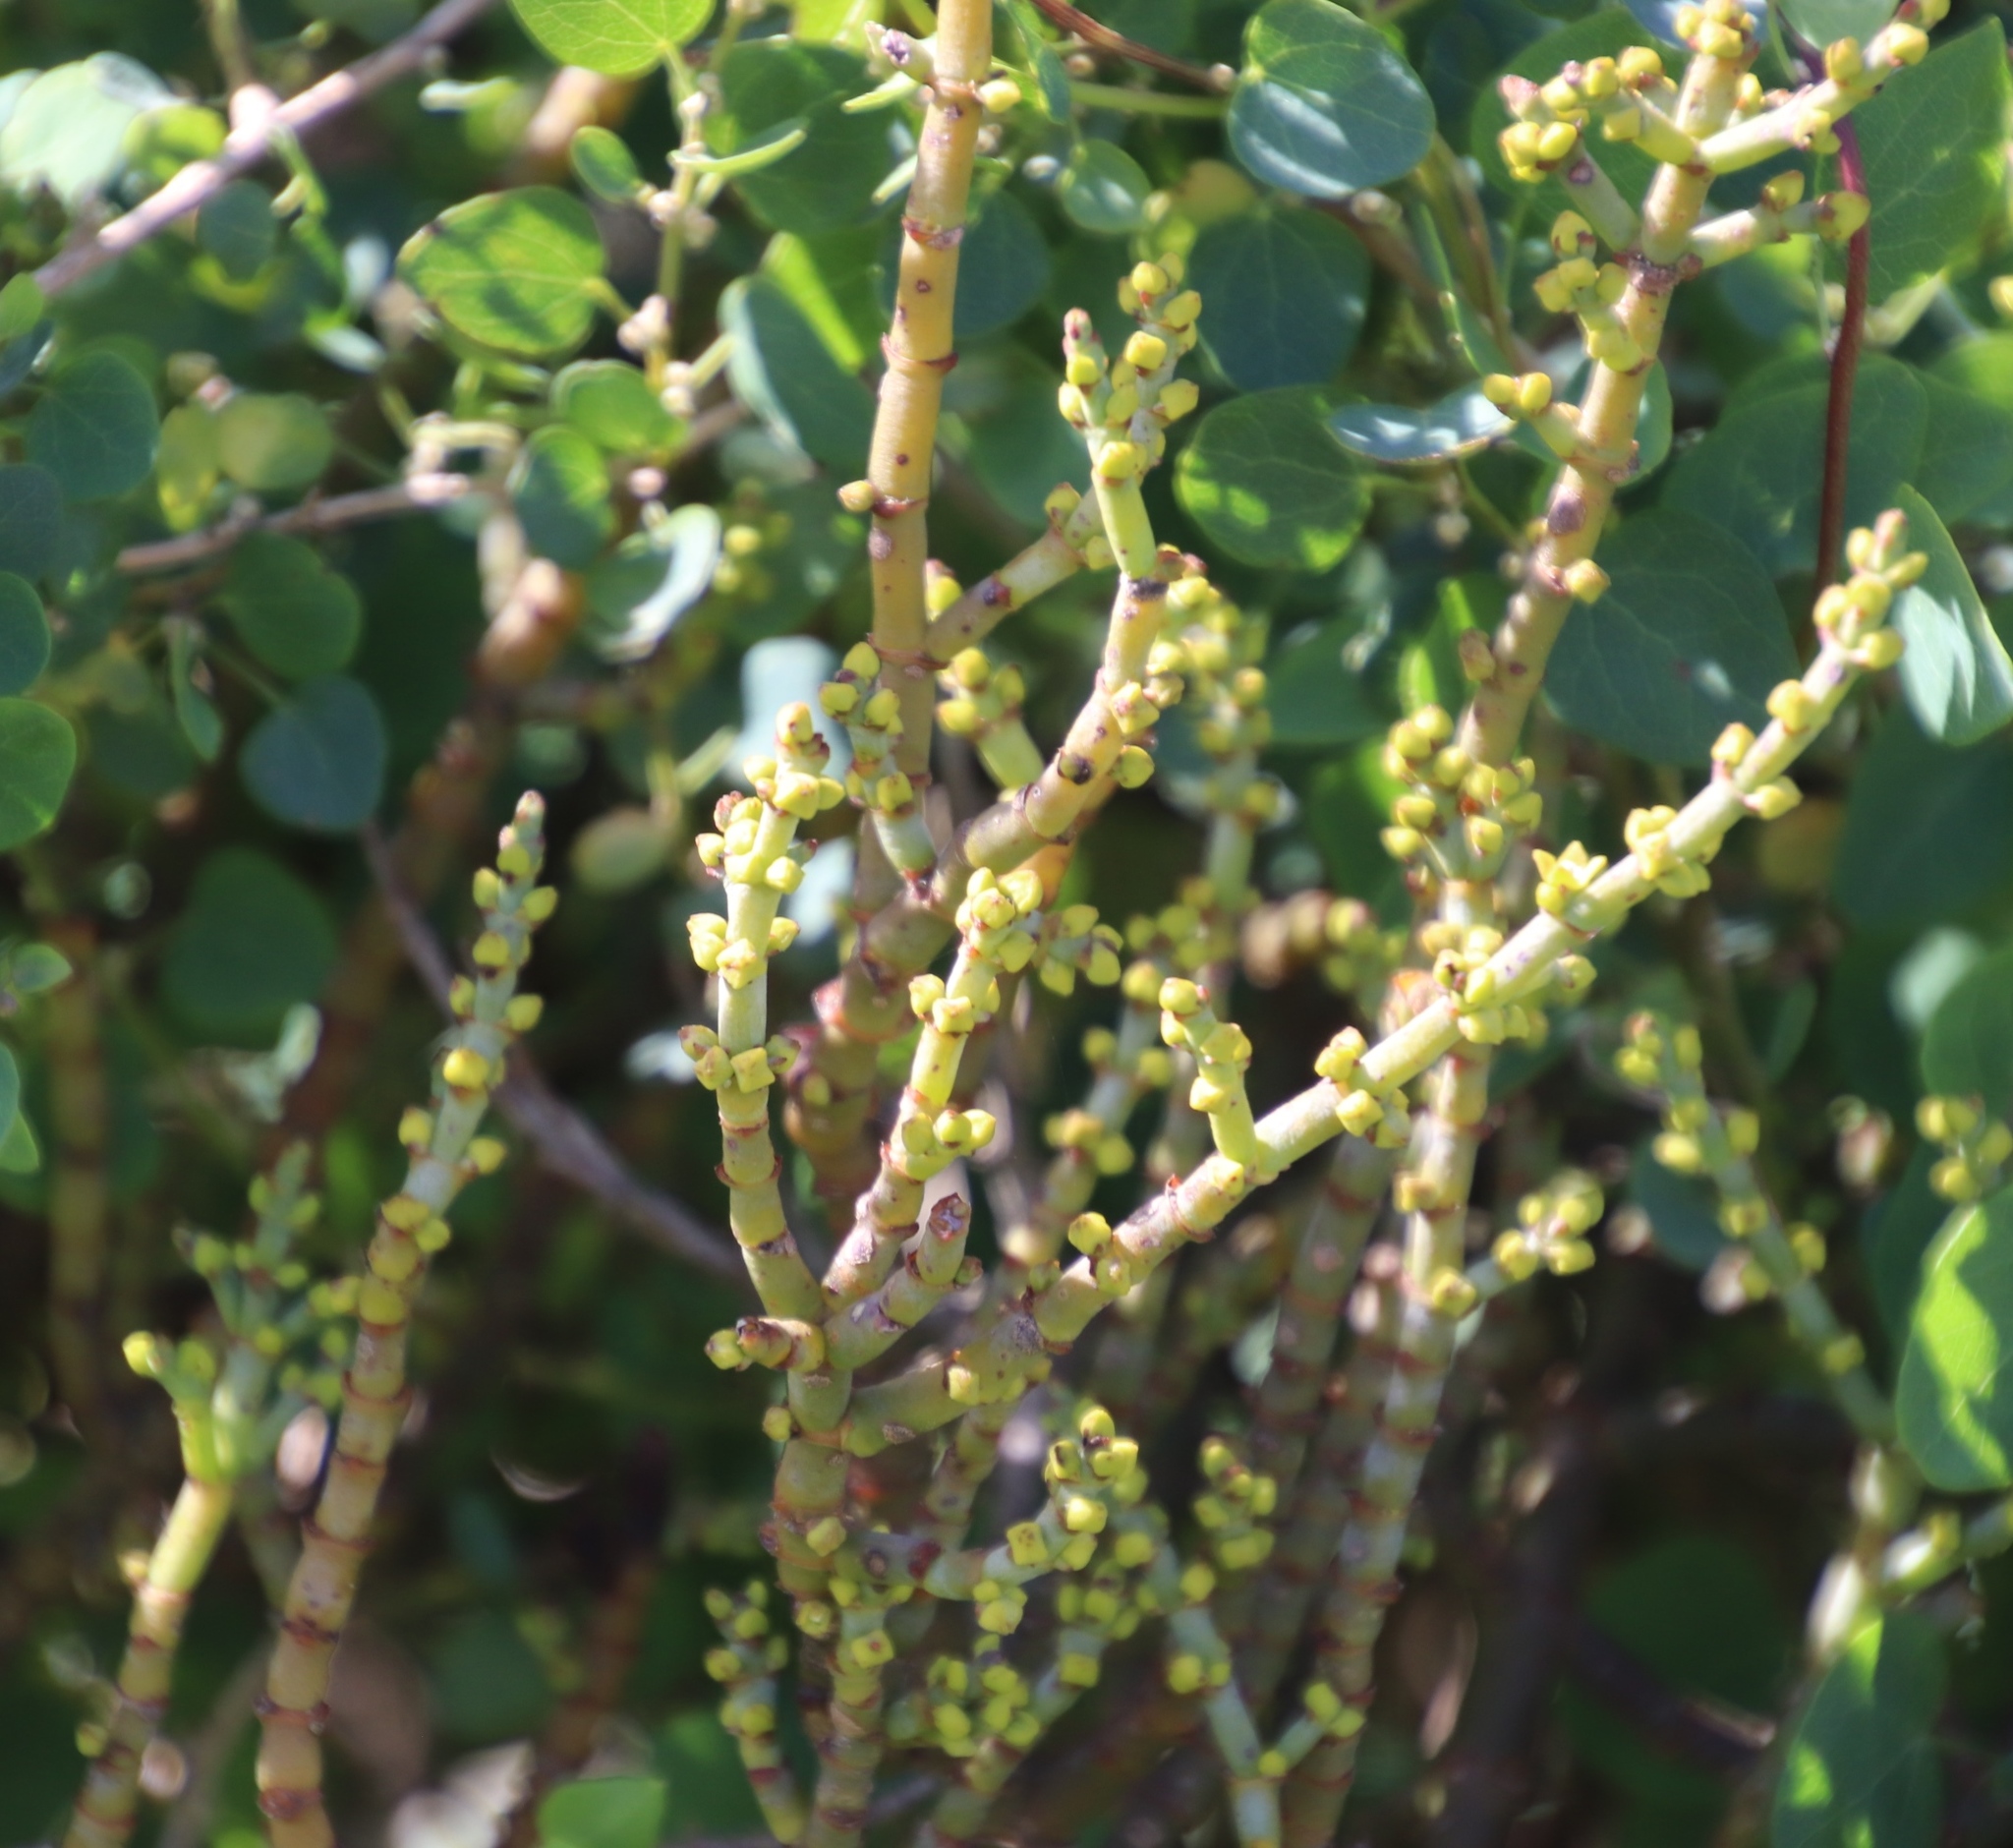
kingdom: Plantae
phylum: Tracheophyta
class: Magnoliopsida
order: Santalales
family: Viscaceae
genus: Viscum
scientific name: Viscum capense
